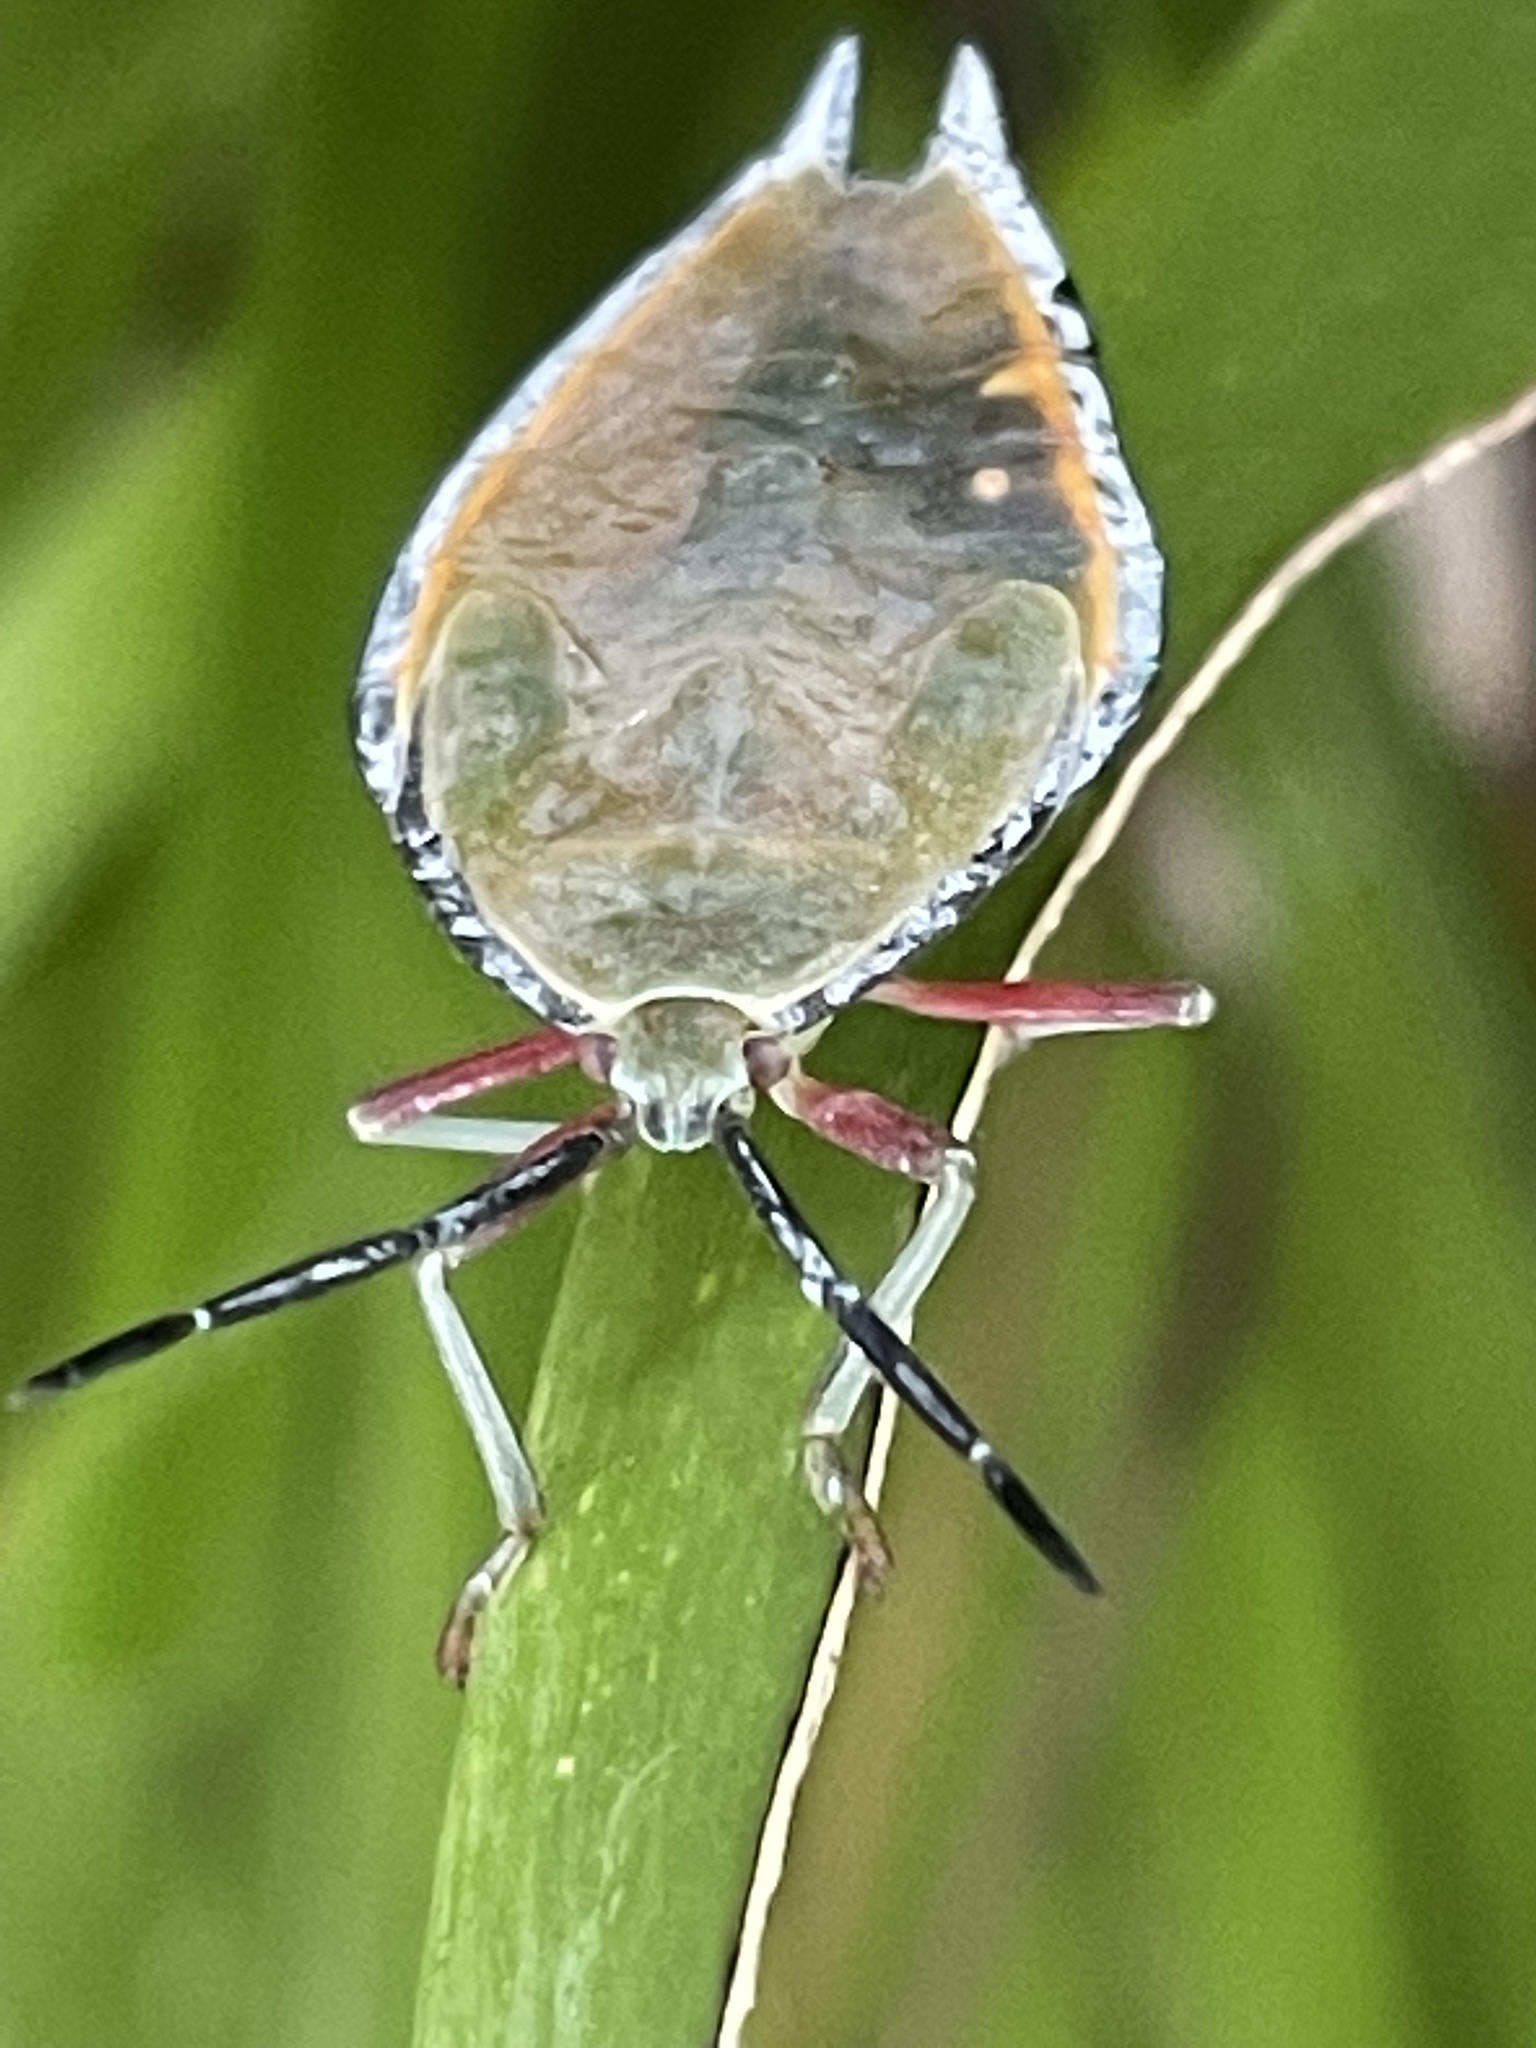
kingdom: Animalia
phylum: Arthropoda
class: Insecta
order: Hemiptera
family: Tessaratomidae
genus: Lyramorpha
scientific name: Lyramorpha rosea
